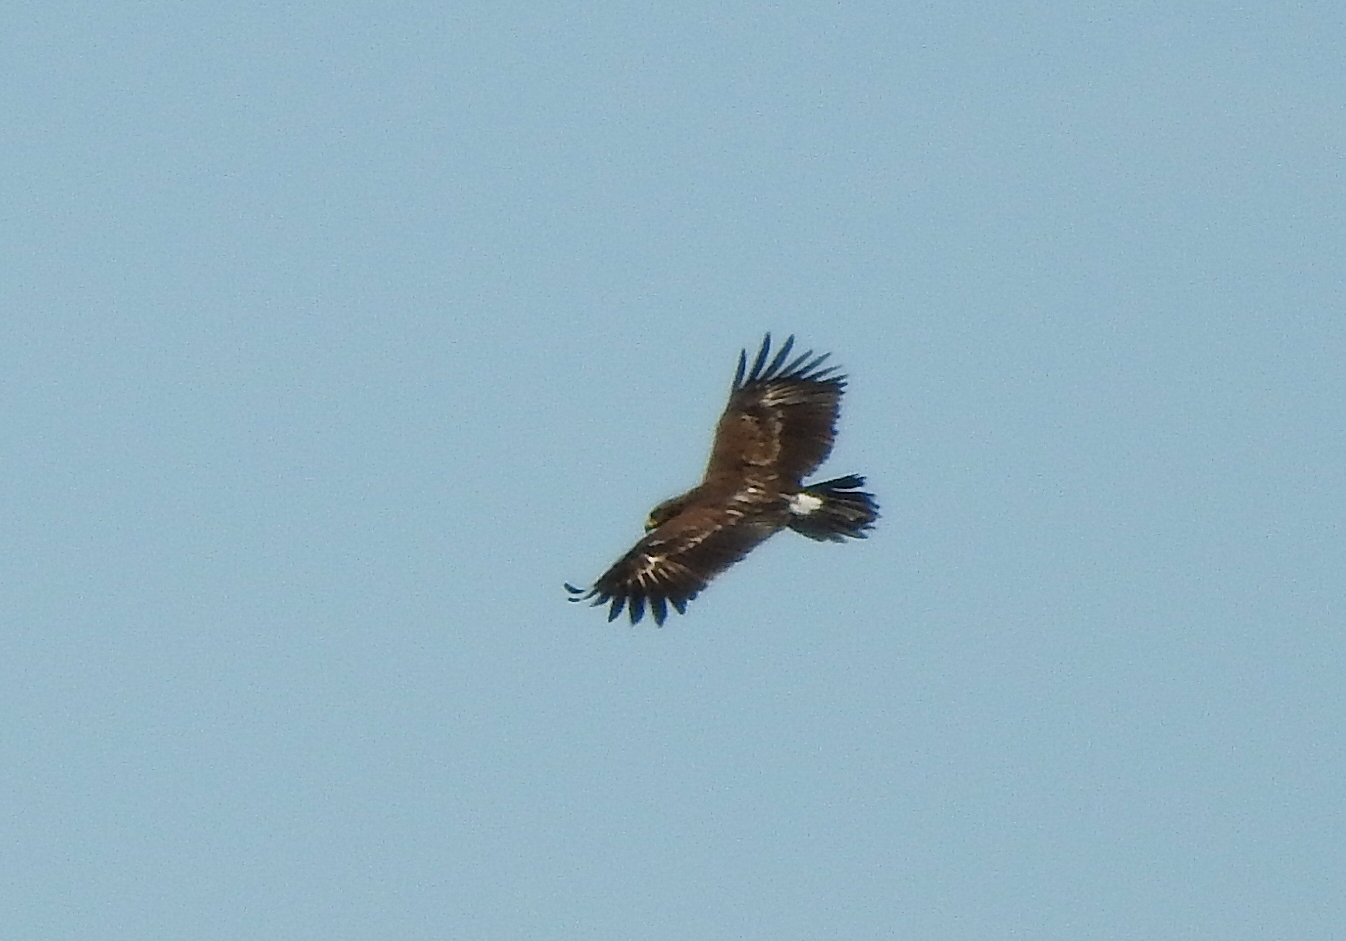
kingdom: Animalia
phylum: Chordata
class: Aves
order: Accipitriformes
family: Accipitridae
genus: Aquila
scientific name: Aquila clanga
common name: Greater spotted eagle
